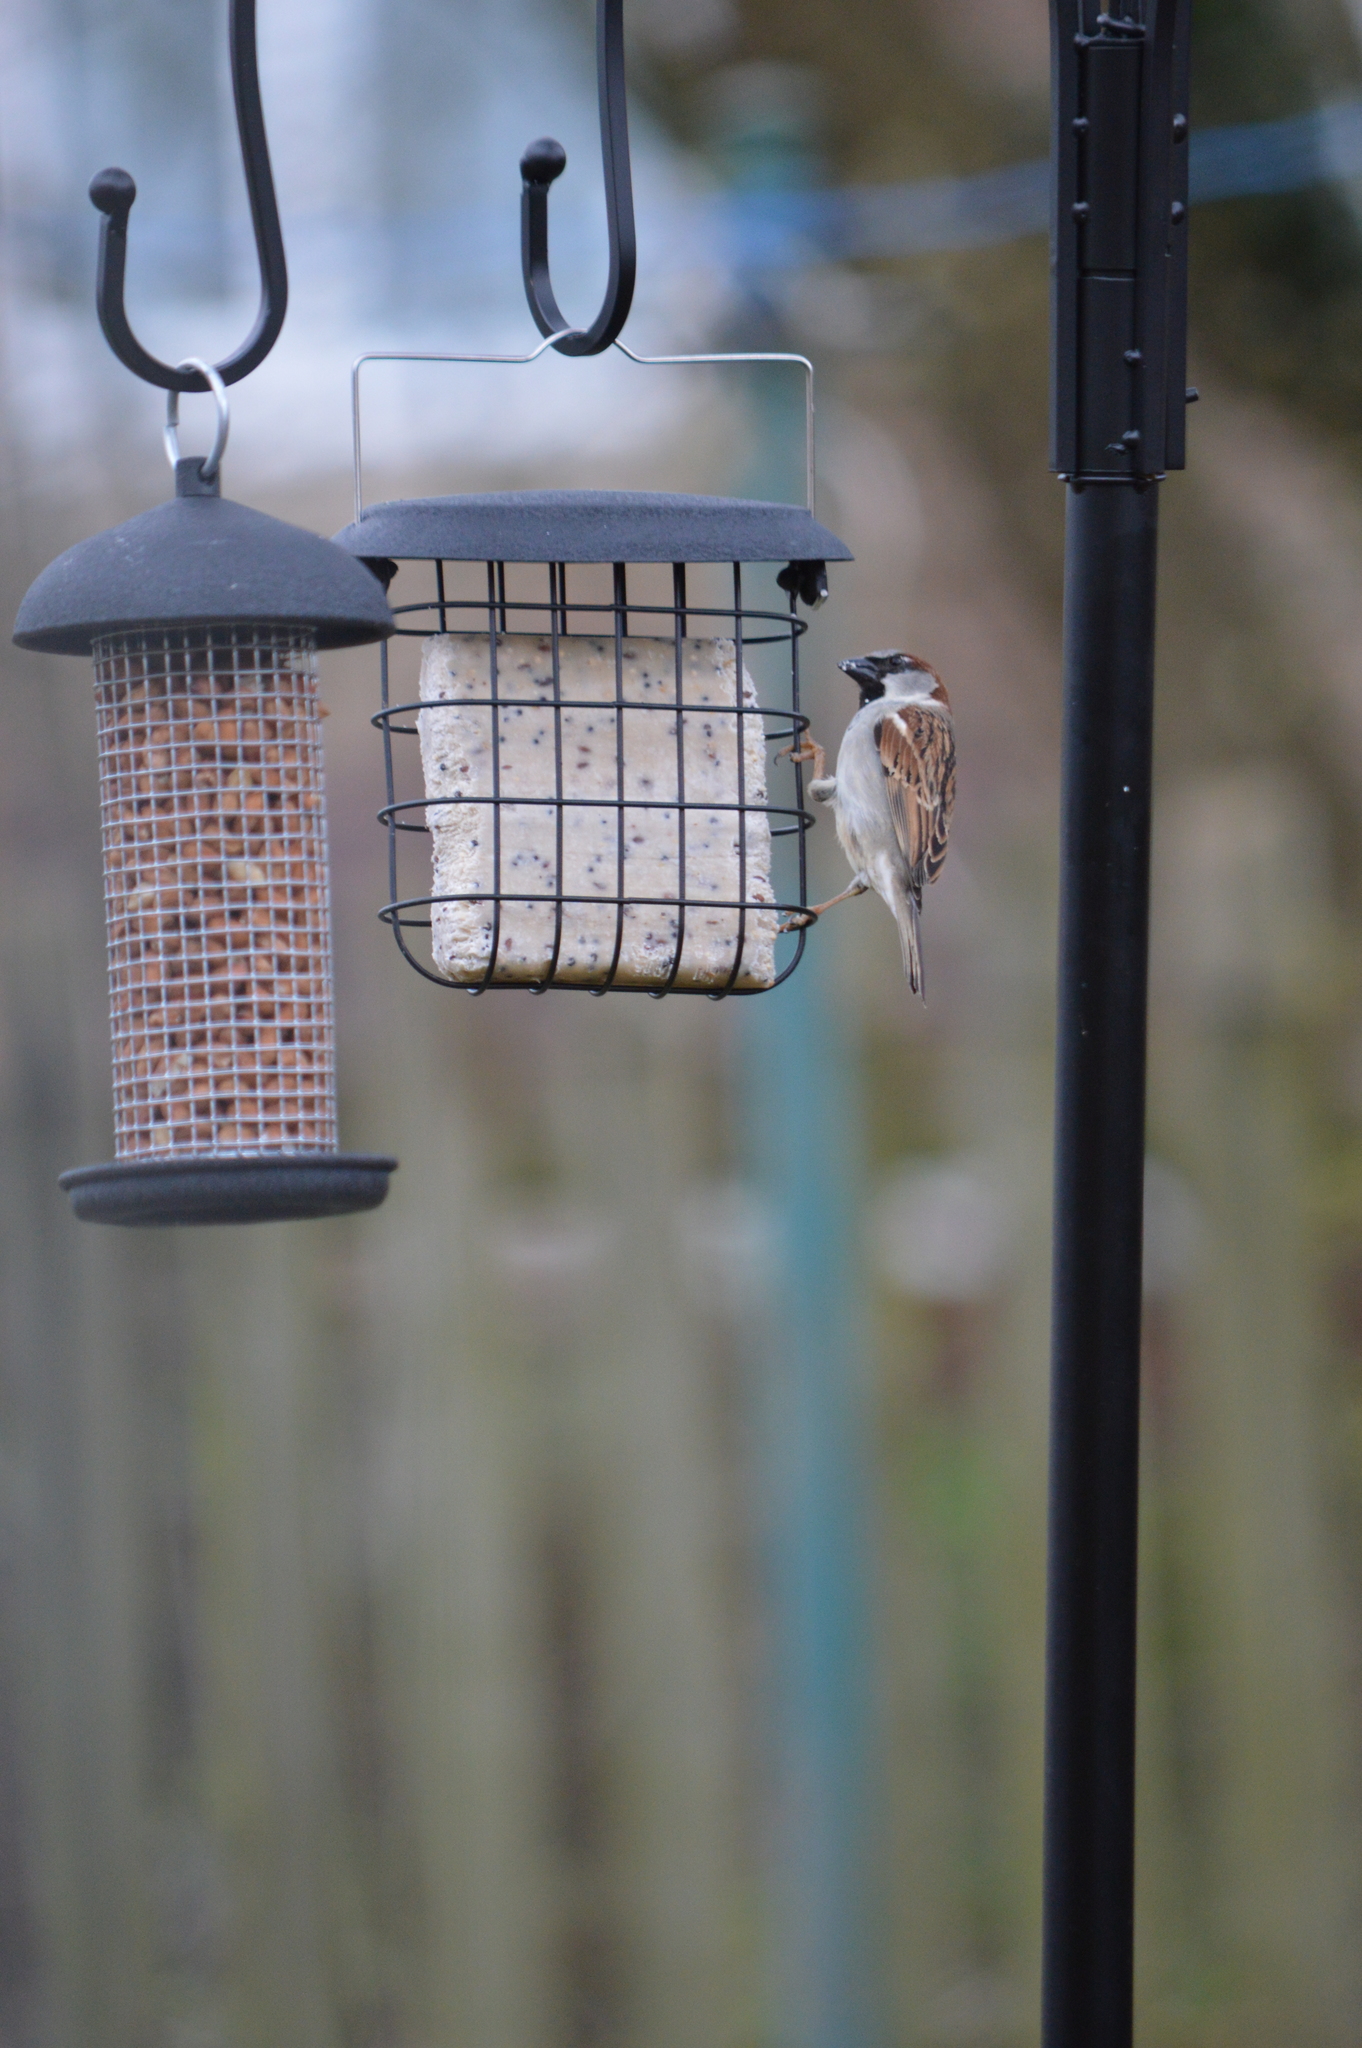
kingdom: Animalia
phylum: Chordata
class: Aves
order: Passeriformes
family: Passeridae
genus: Passer
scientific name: Passer domesticus
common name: House sparrow
